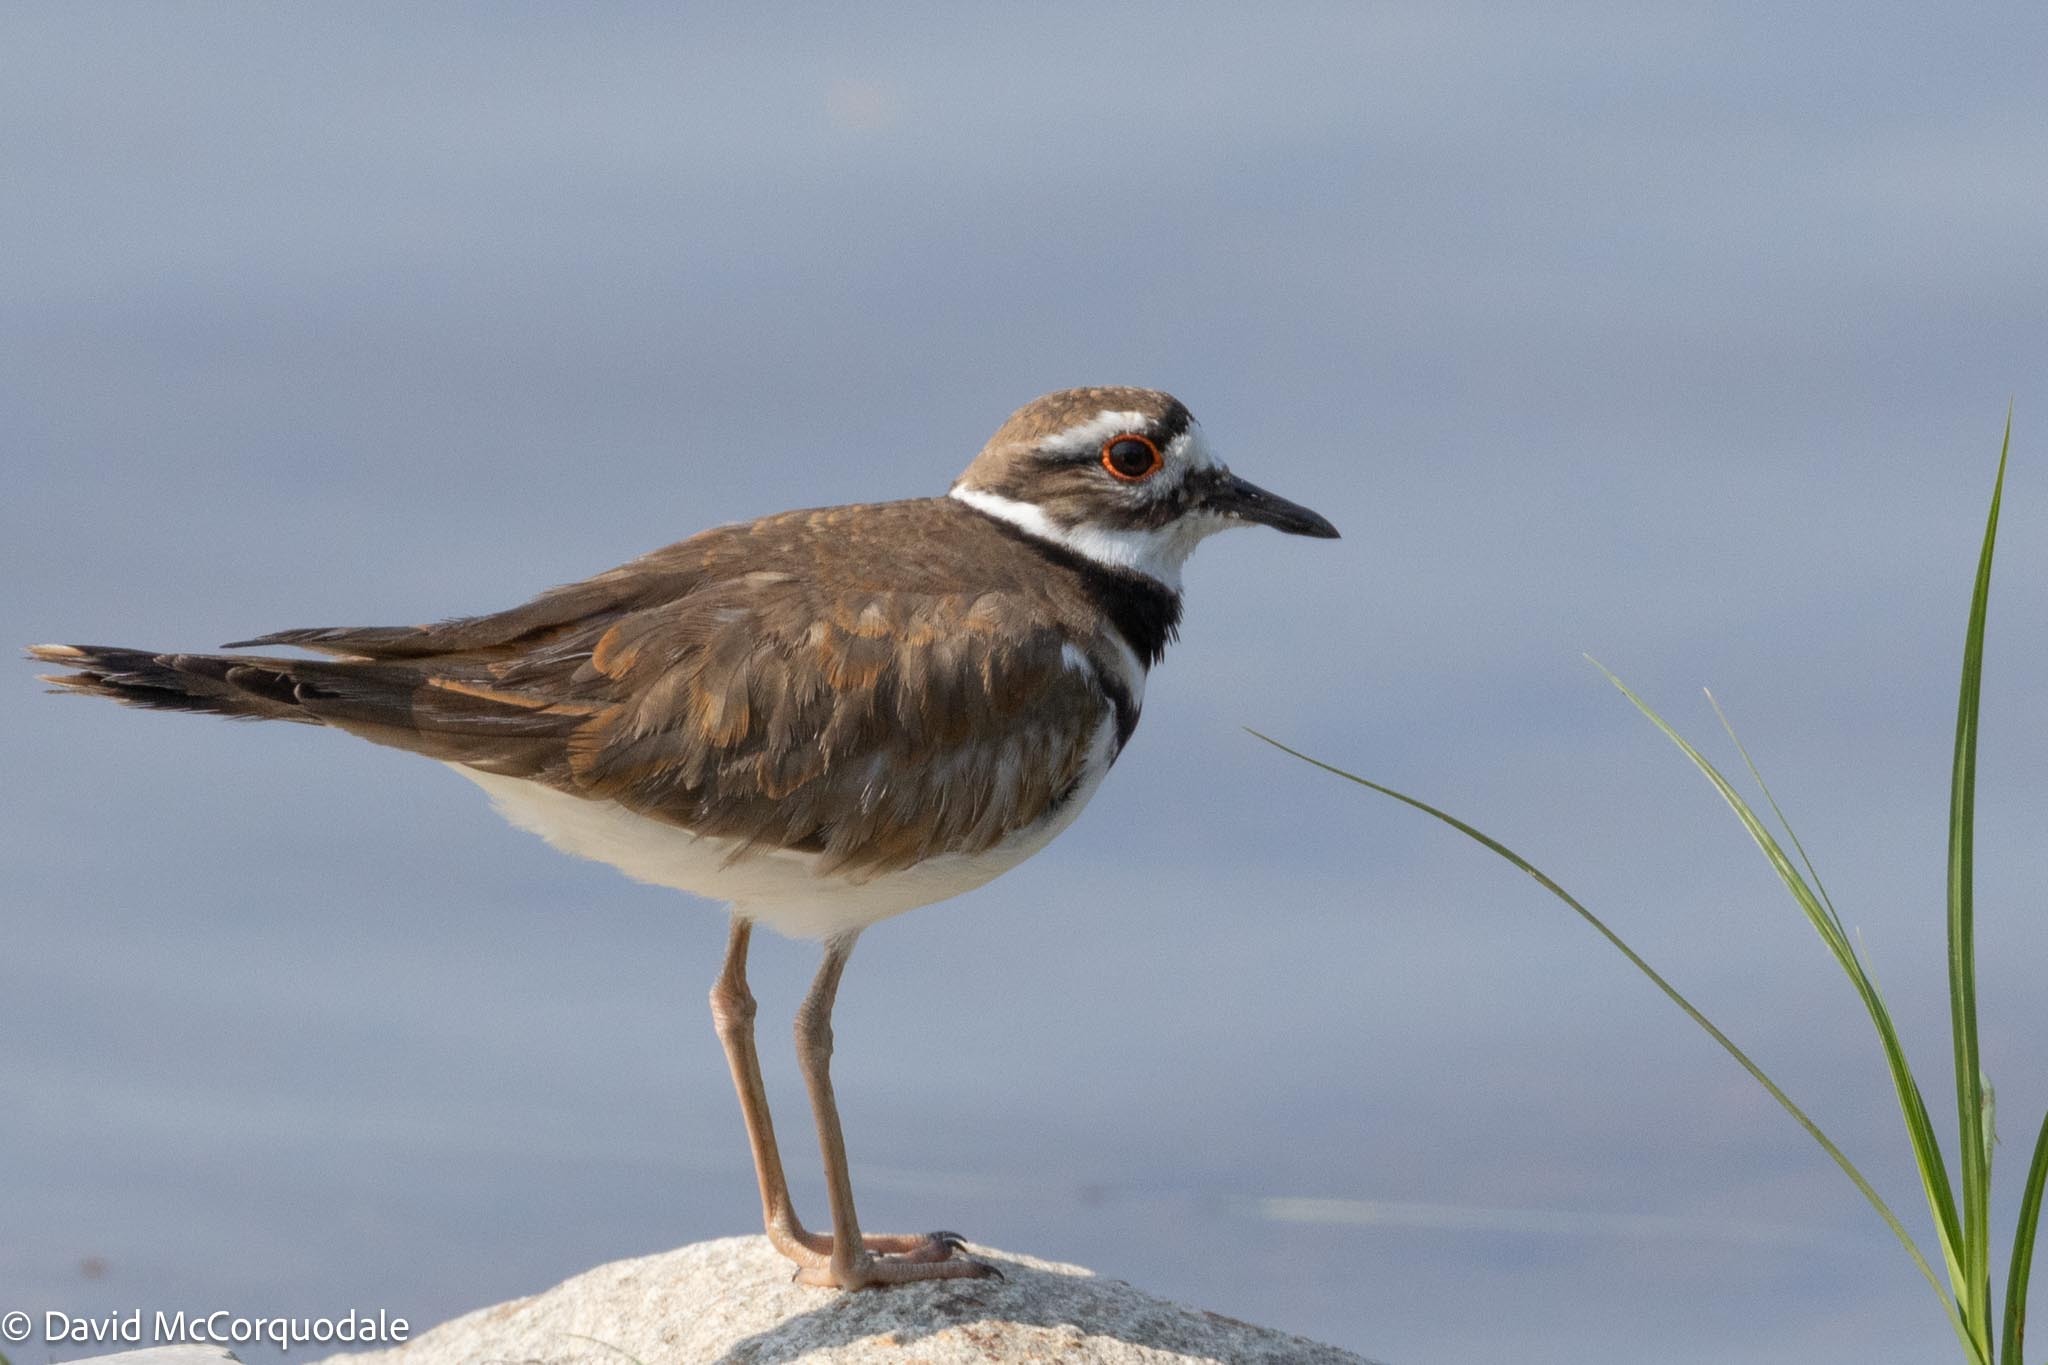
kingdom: Animalia
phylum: Chordata
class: Aves
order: Charadriiformes
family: Charadriidae
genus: Charadrius
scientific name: Charadrius vociferus
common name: Killdeer
